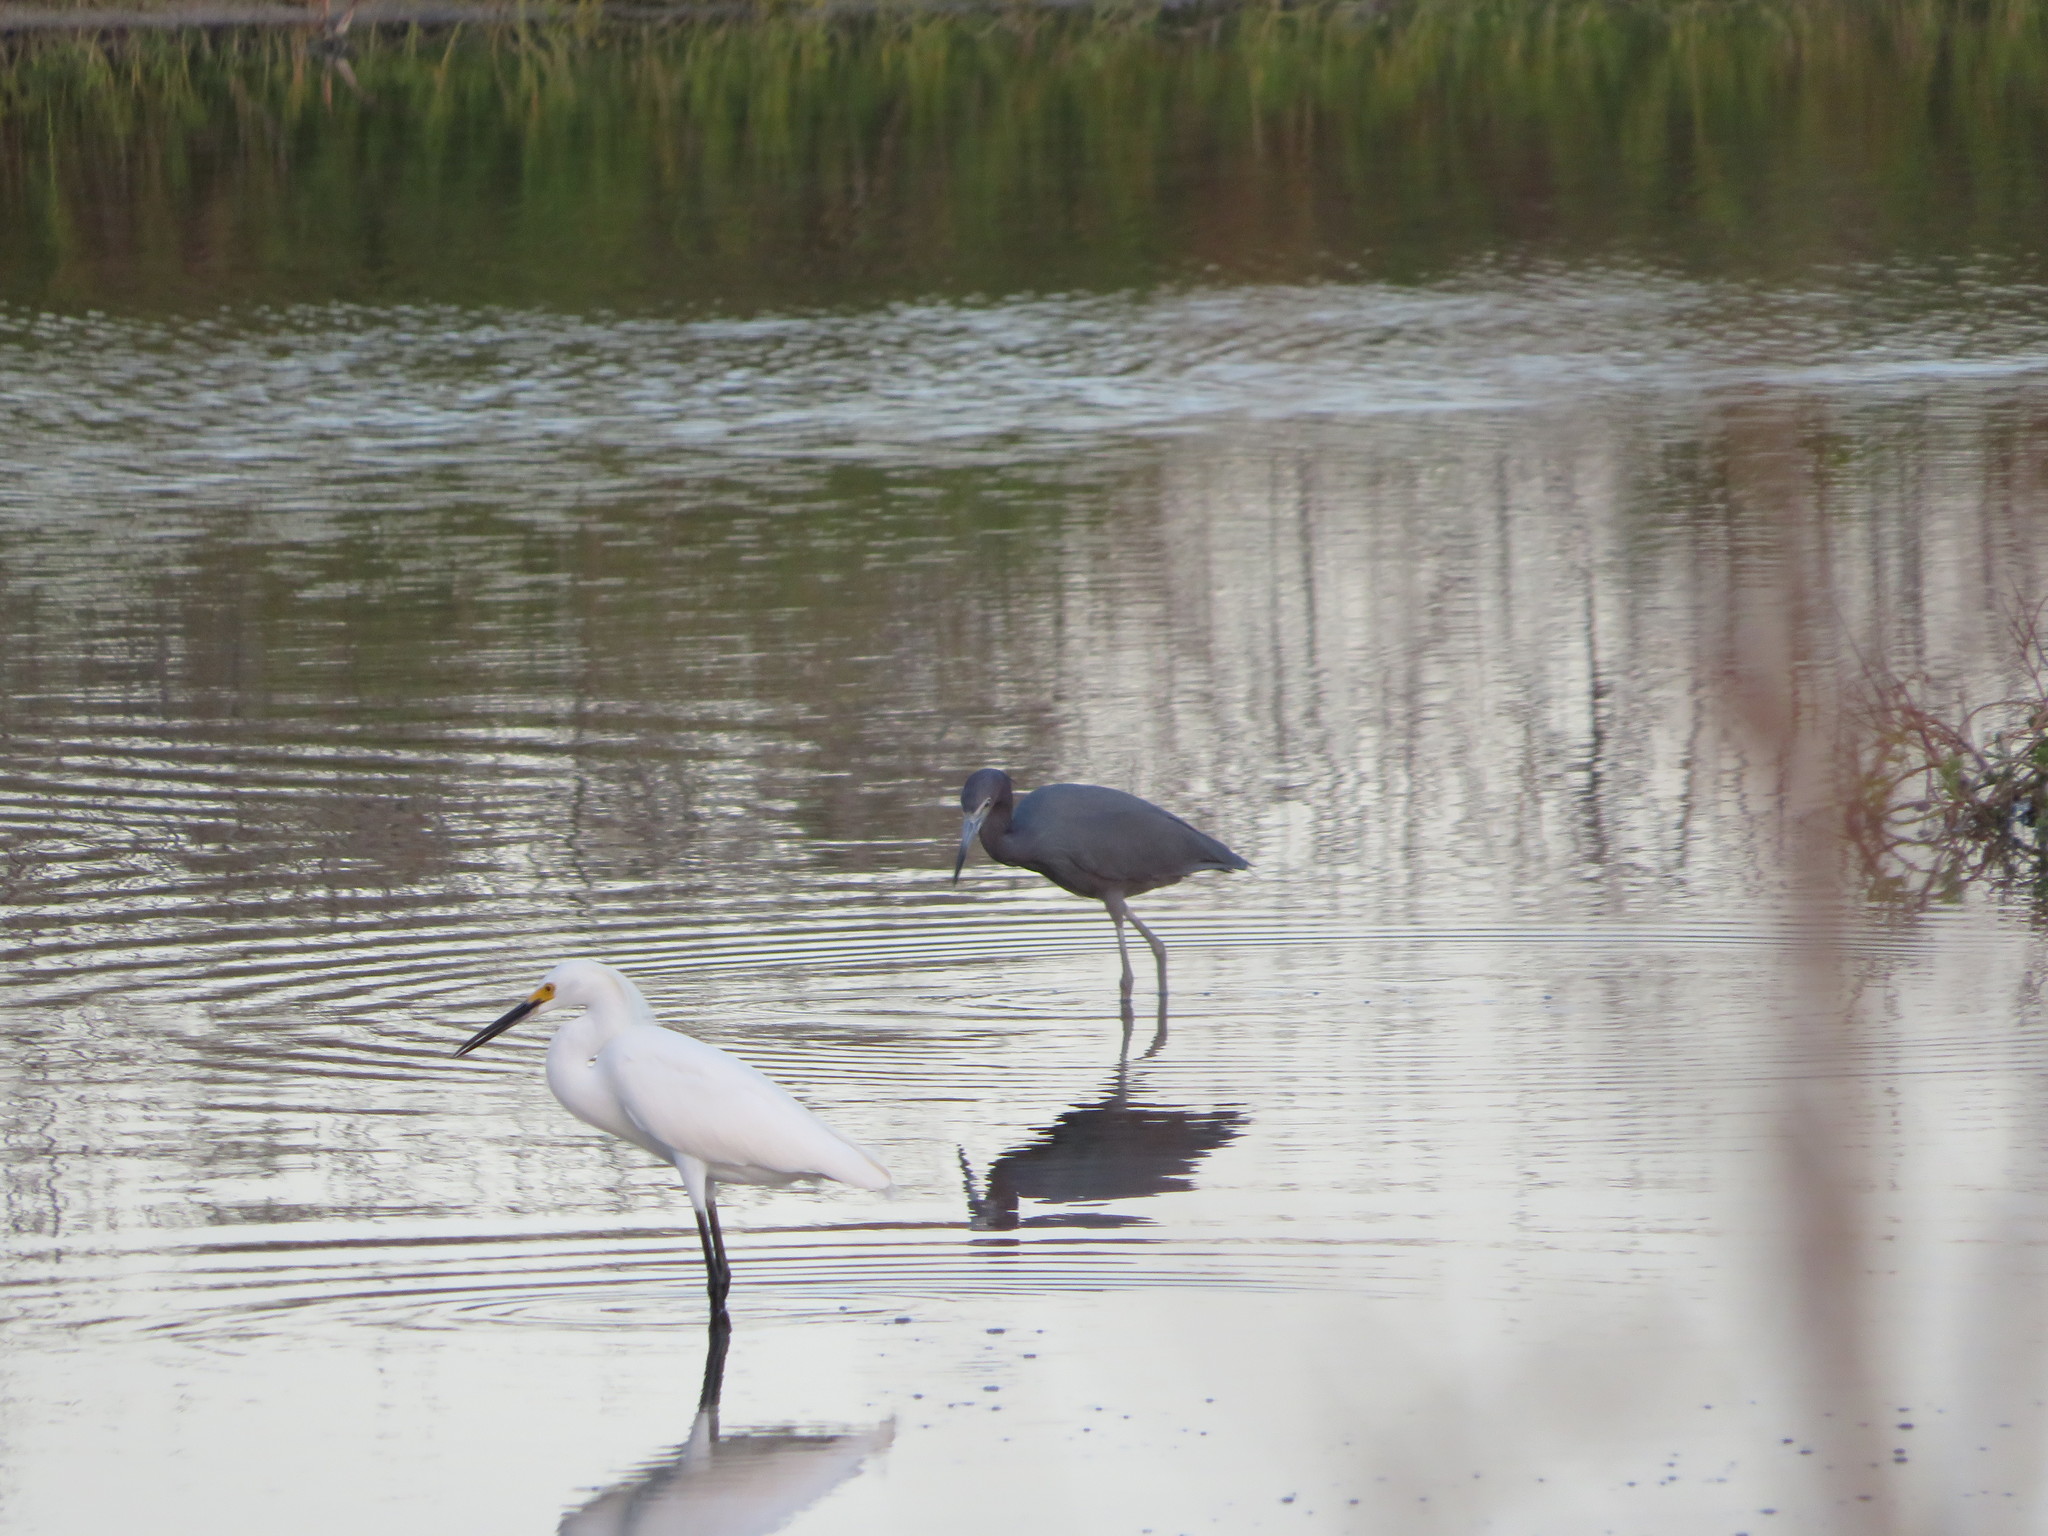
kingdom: Animalia
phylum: Chordata
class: Aves
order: Pelecaniformes
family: Ardeidae
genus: Egretta
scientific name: Egretta caerulea
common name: Little blue heron
